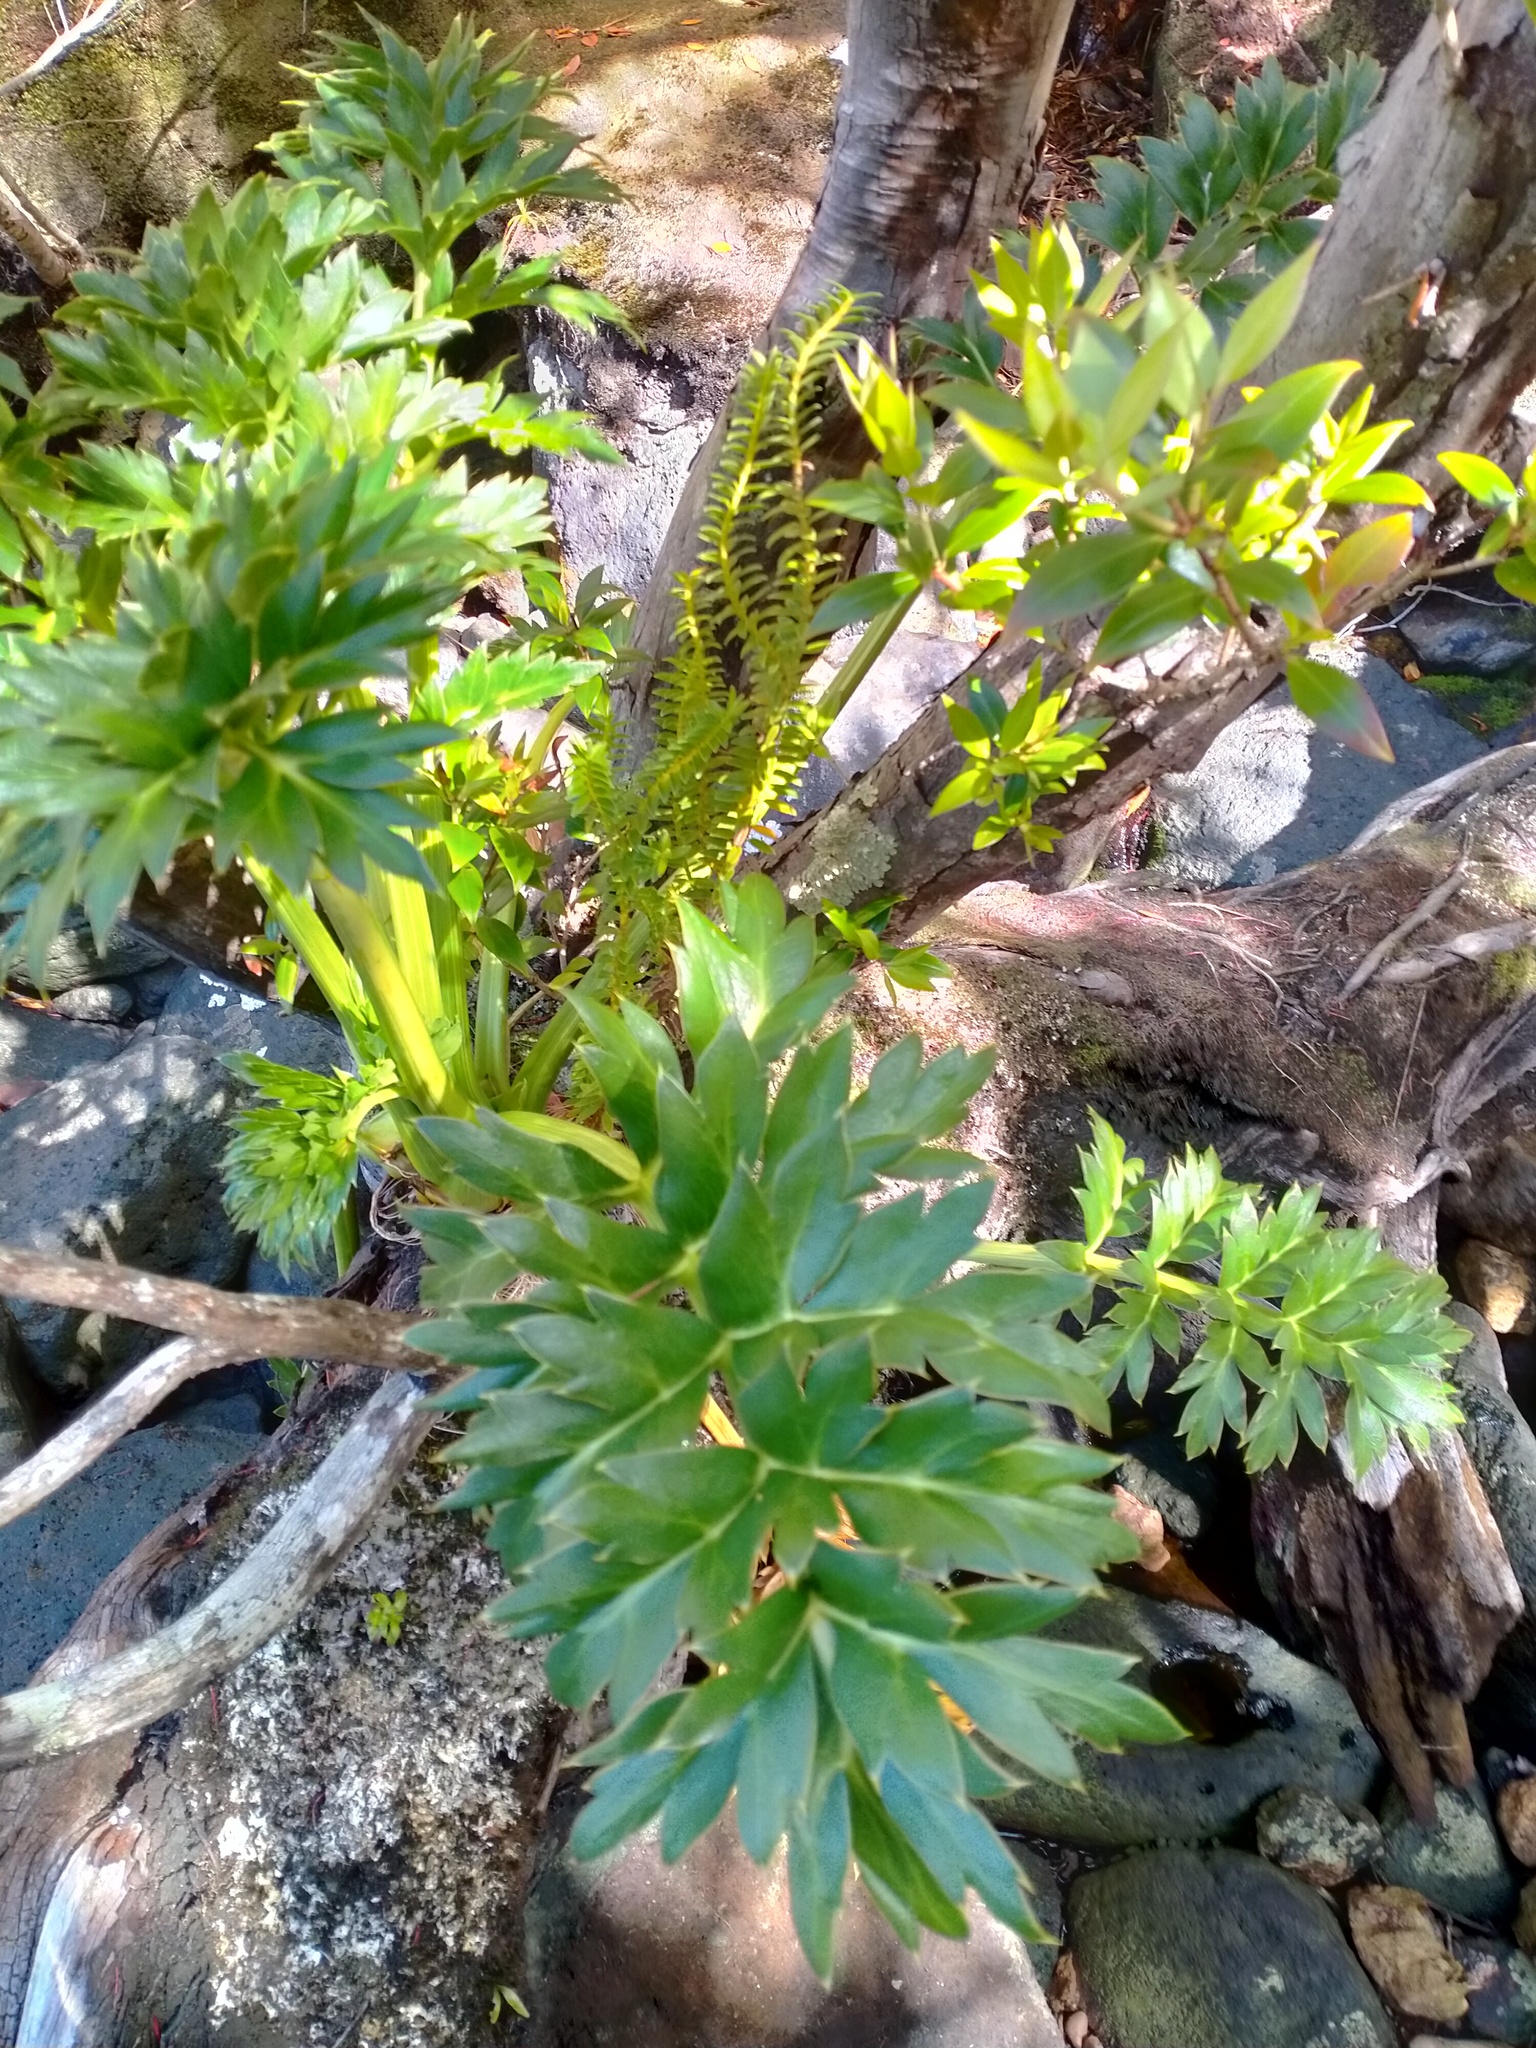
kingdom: Plantae
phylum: Tracheophyta
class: Magnoliopsida
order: Apiales
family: Apiaceae
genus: Anisotome
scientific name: Anisotome latifolia
